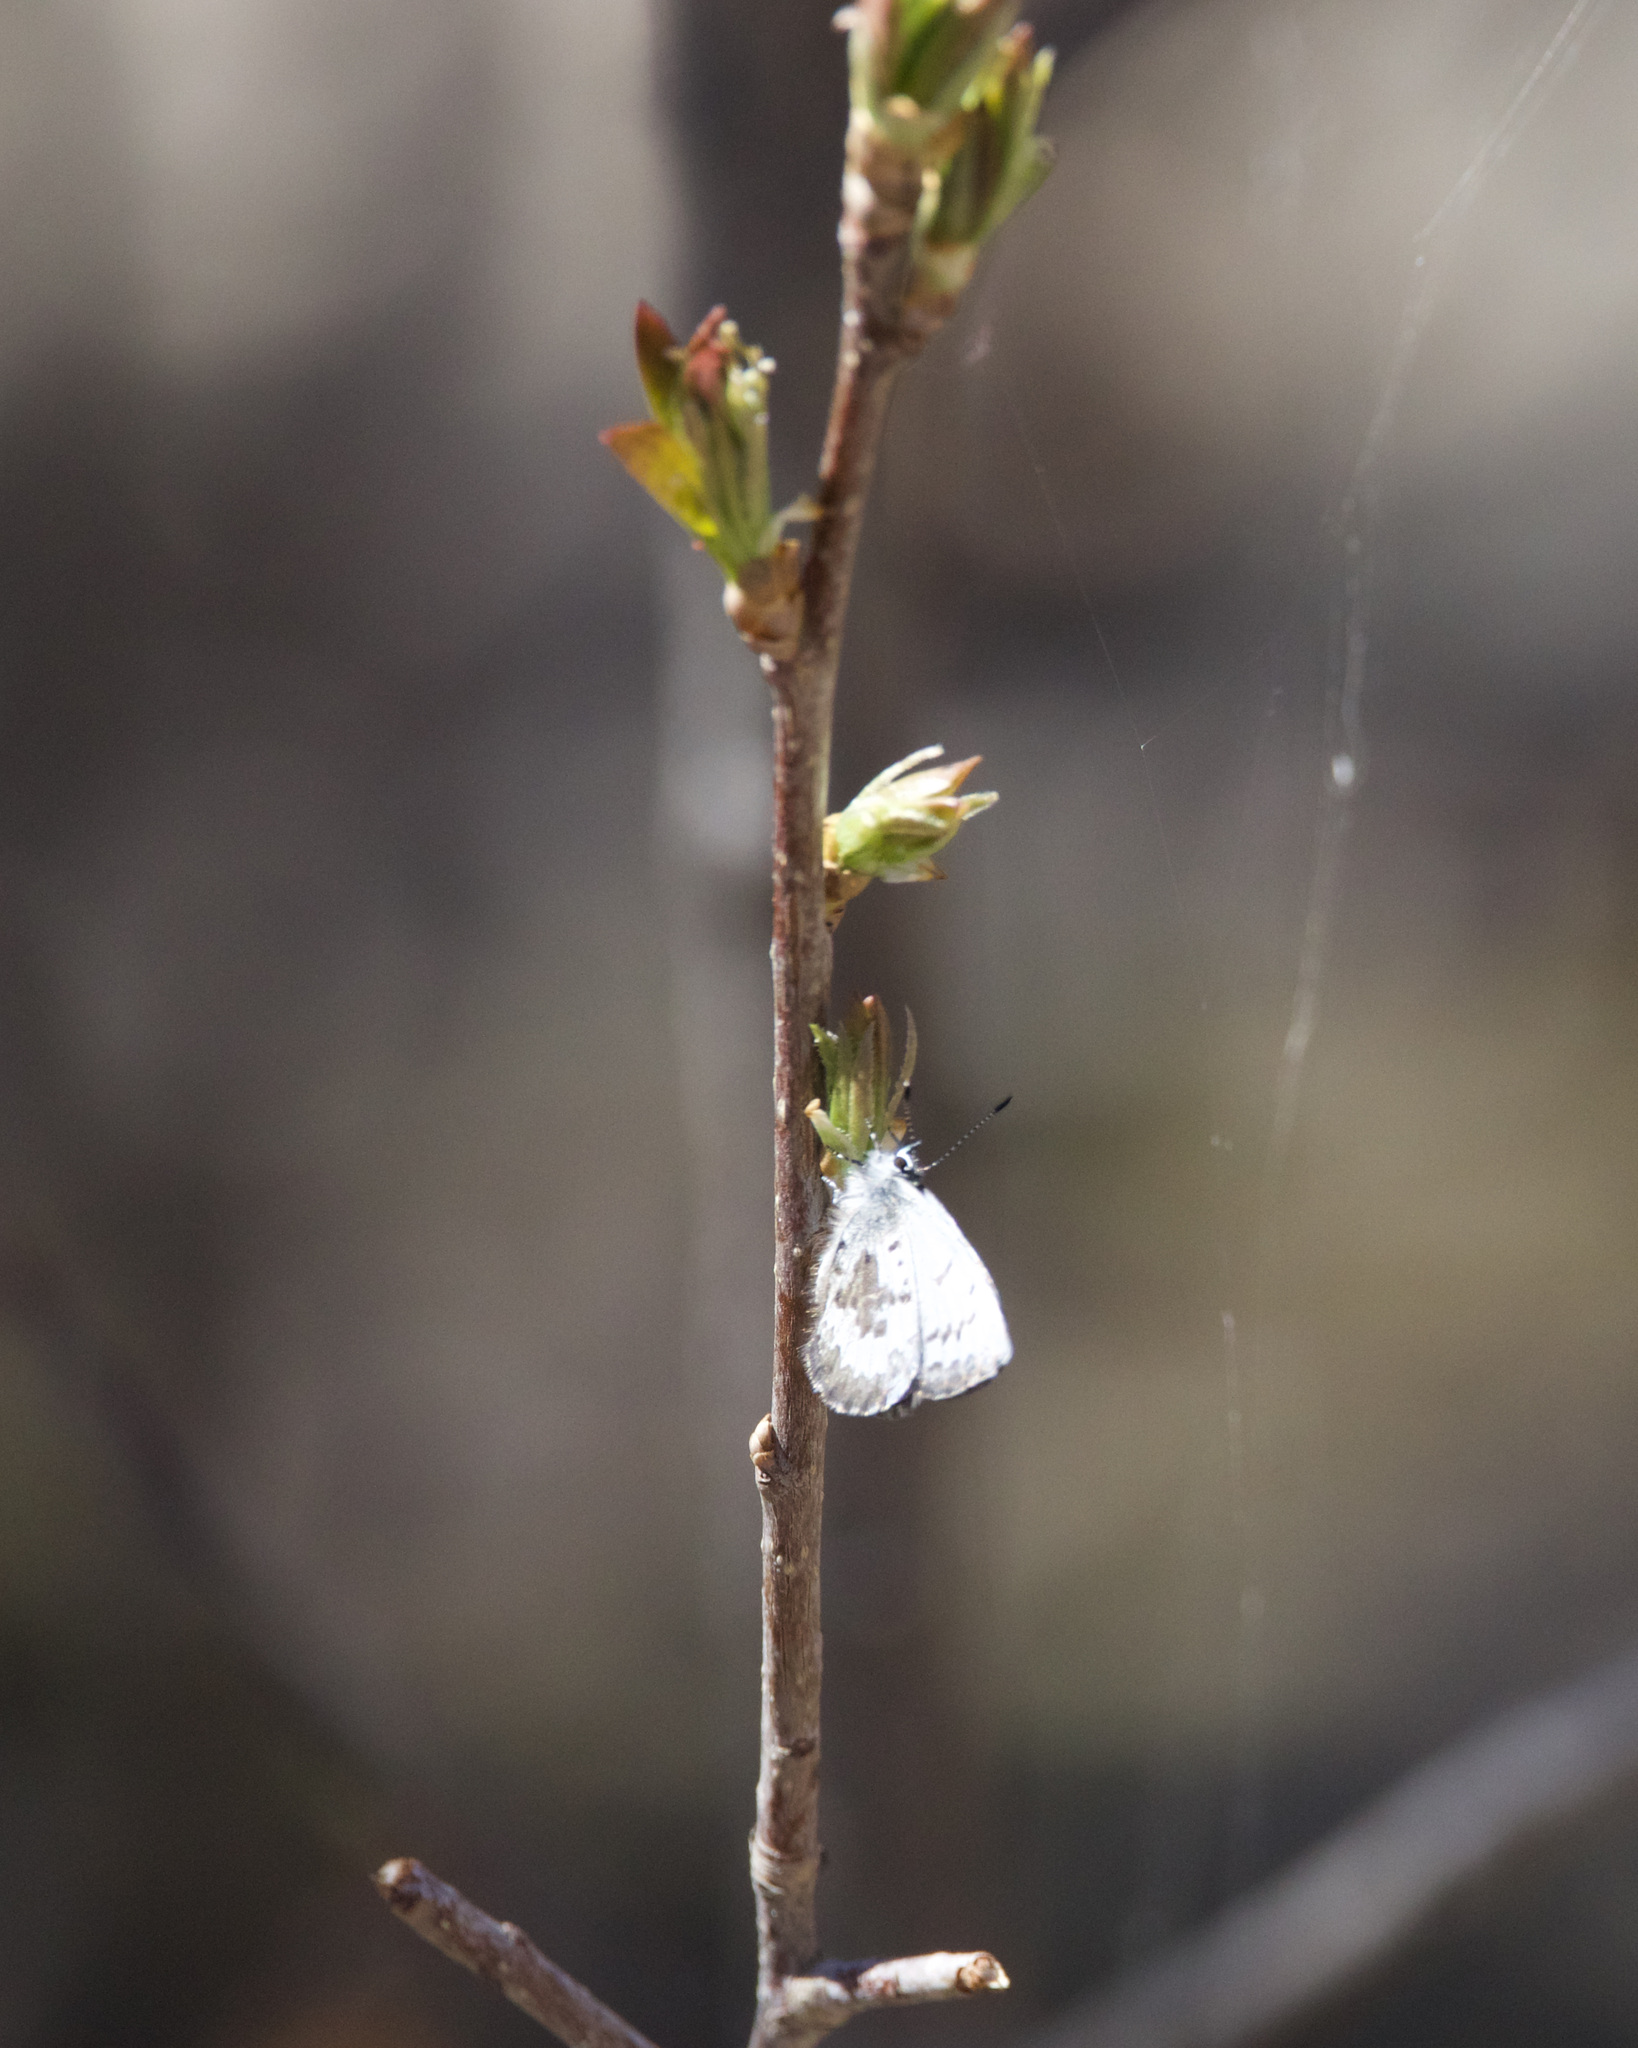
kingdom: Animalia
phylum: Arthropoda
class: Insecta
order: Lepidoptera
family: Lycaenidae
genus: Celastrina
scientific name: Celastrina lucia
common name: Lucia azure
